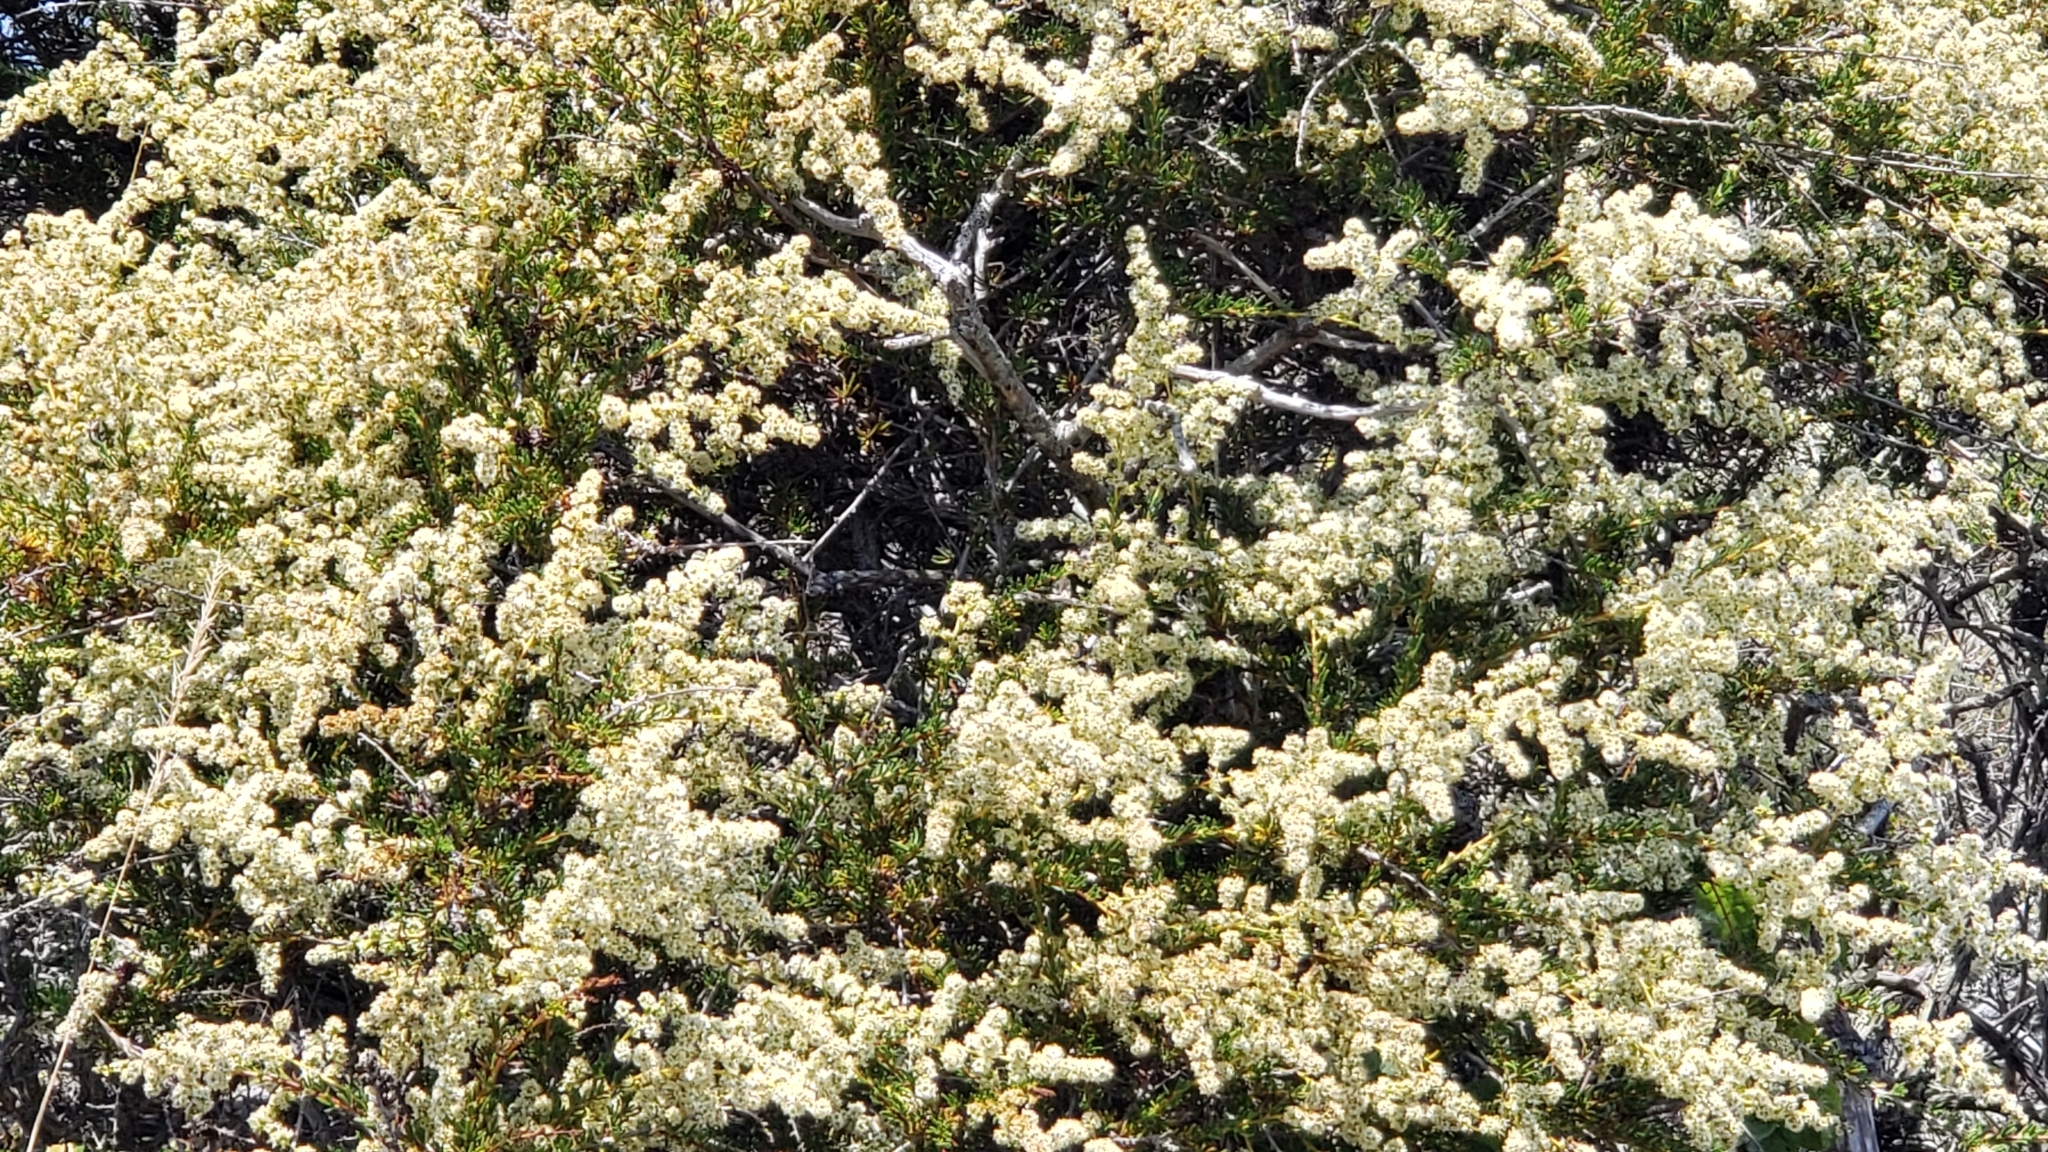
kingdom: Plantae
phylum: Tracheophyta
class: Magnoliopsida
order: Rosales
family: Rosaceae
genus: Adenostoma
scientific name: Adenostoma fasciculatum
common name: Chamise
